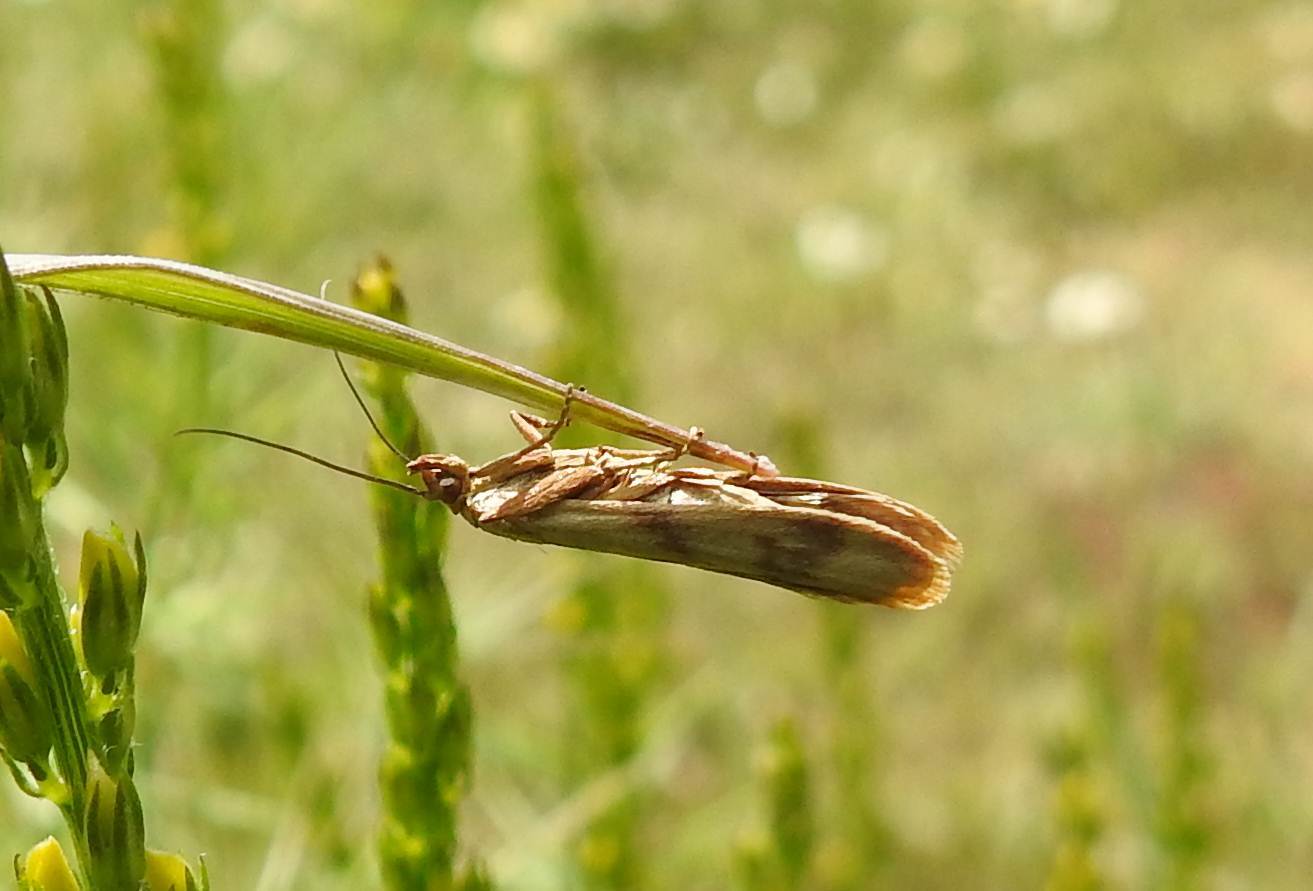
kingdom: Animalia
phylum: Arthropoda
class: Insecta
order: Lepidoptera
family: Pyralidae
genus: Homoeosoma
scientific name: Homoeosoma sinuella
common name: Twin-barred knot-horn
